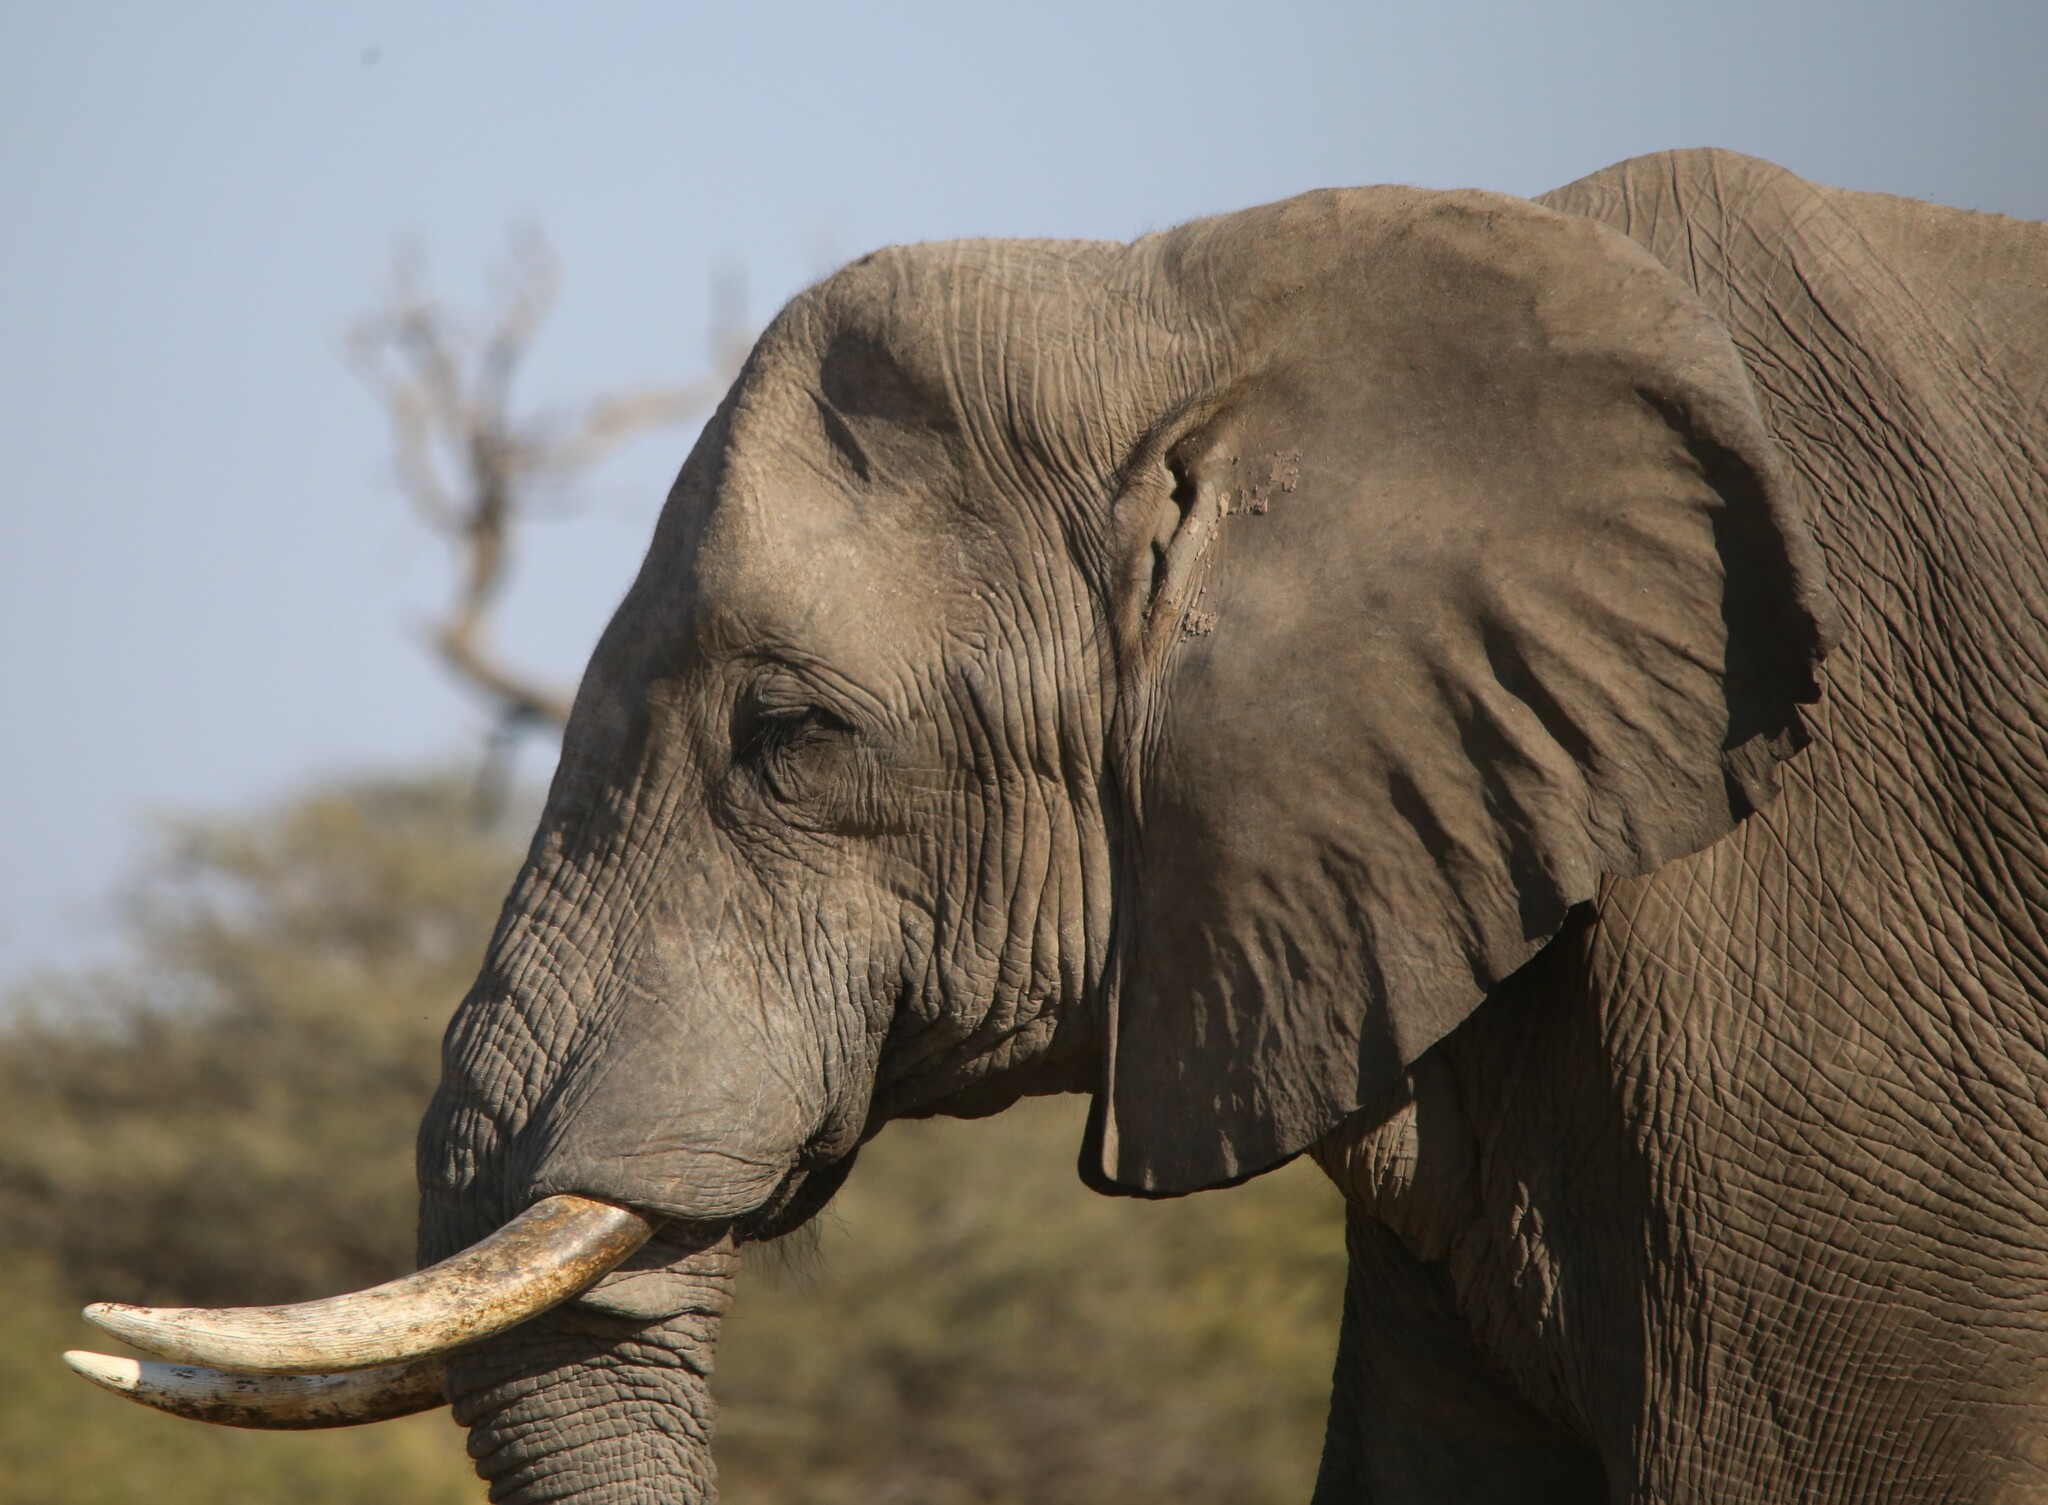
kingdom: Animalia
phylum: Chordata
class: Mammalia
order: Proboscidea
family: Elephantidae
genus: Loxodonta
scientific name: Loxodonta africana
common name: African elephant
